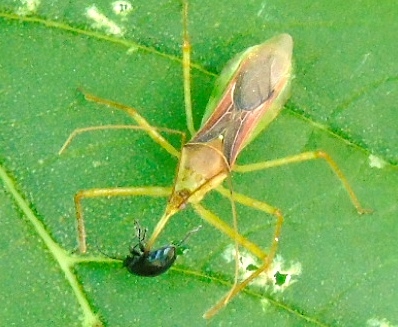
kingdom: Animalia
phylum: Arthropoda
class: Insecta
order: Hemiptera
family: Reduviidae
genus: Zelus
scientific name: Zelus renardii
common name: Assassin bug
